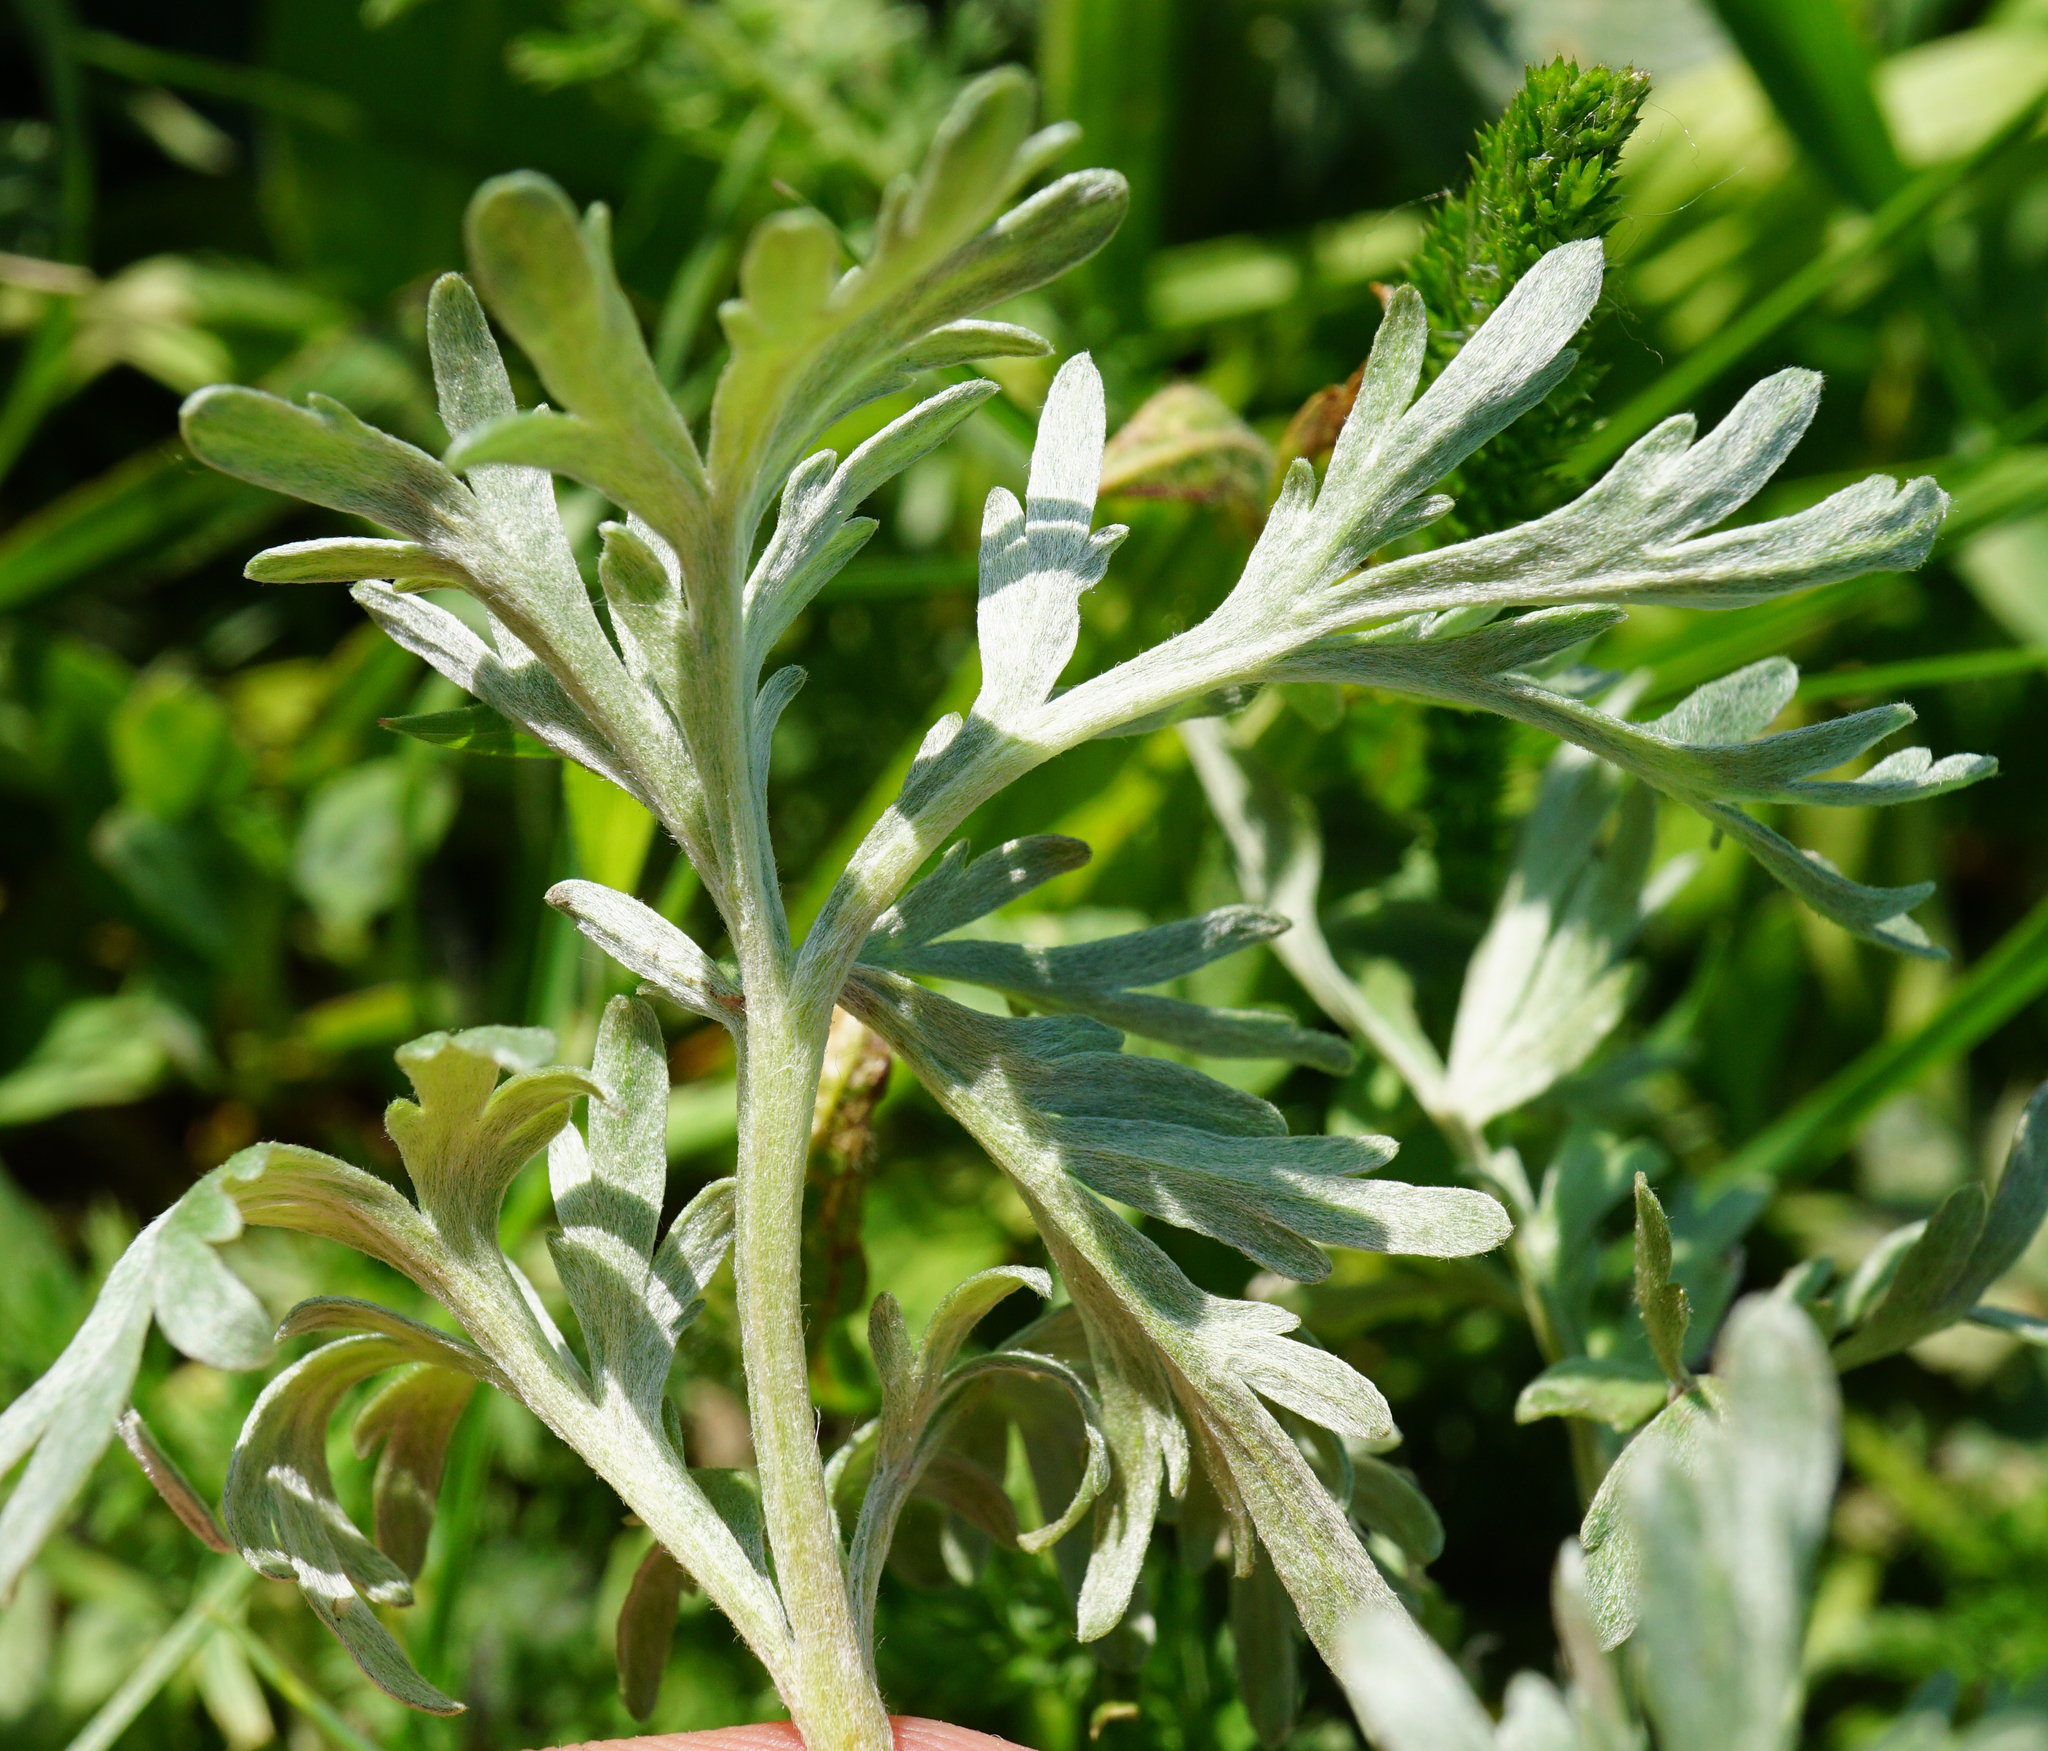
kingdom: Plantae
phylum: Tracheophyta
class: Magnoliopsida
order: Asterales
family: Asteraceae
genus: Artemisia
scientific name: Artemisia absinthium
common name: Wormwood
